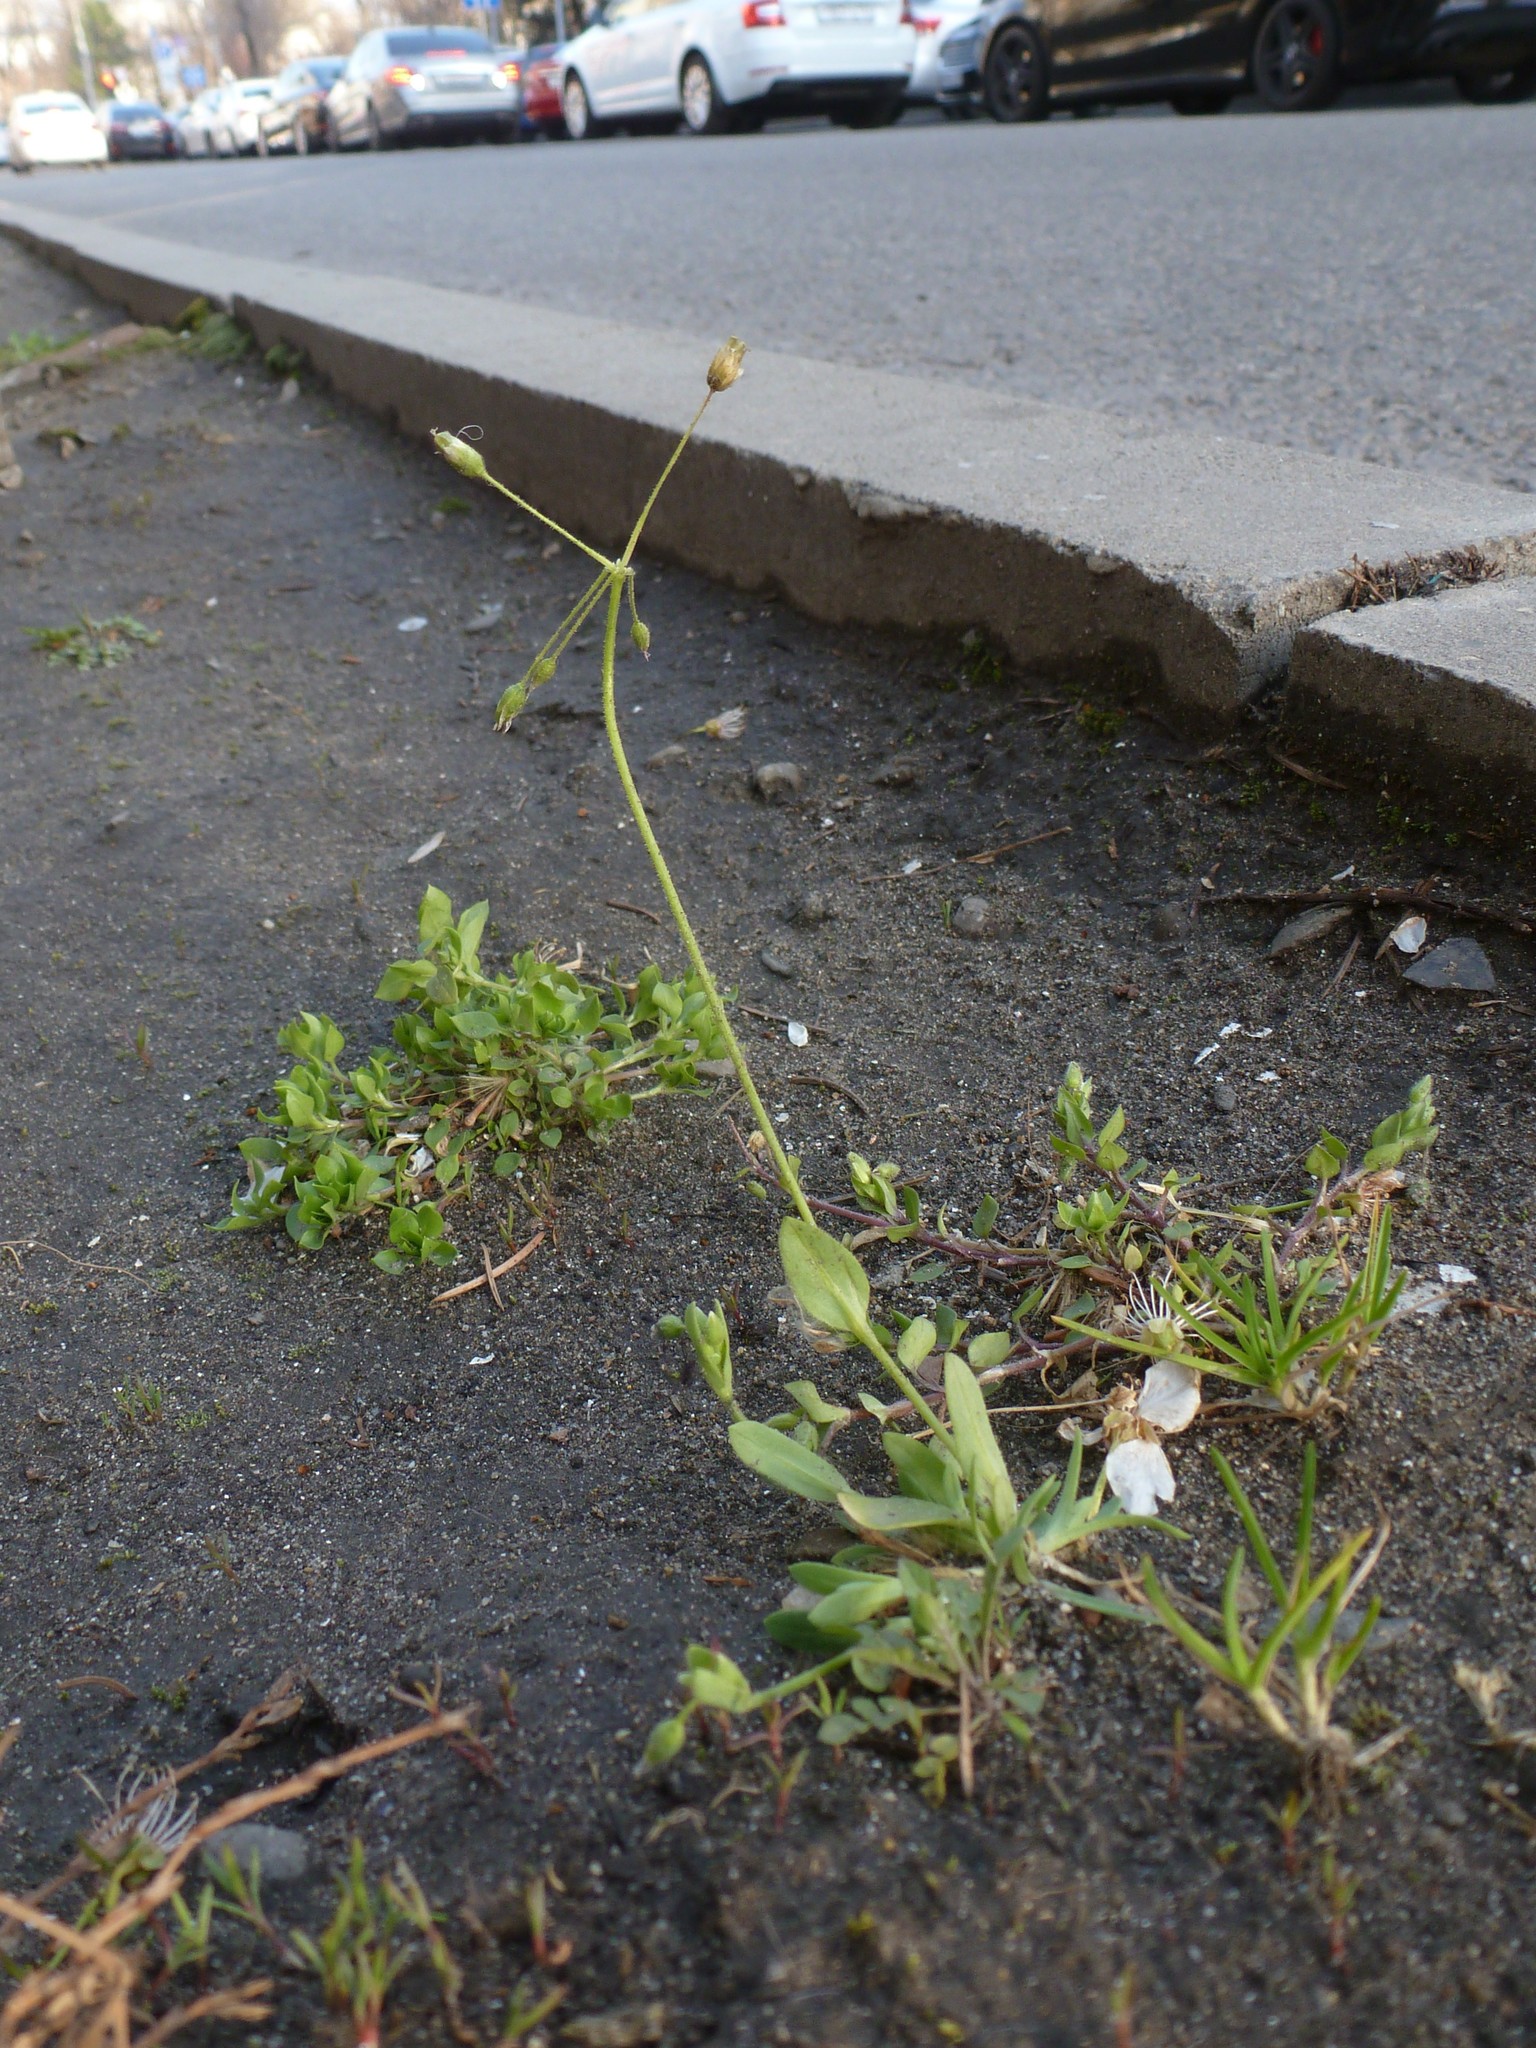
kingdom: Plantae
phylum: Tracheophyta
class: Magnoliopsida
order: Caryophyllales
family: Caryophyllaceae
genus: Holosteum
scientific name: Holosteum umbellatum
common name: Jagged chickweed
